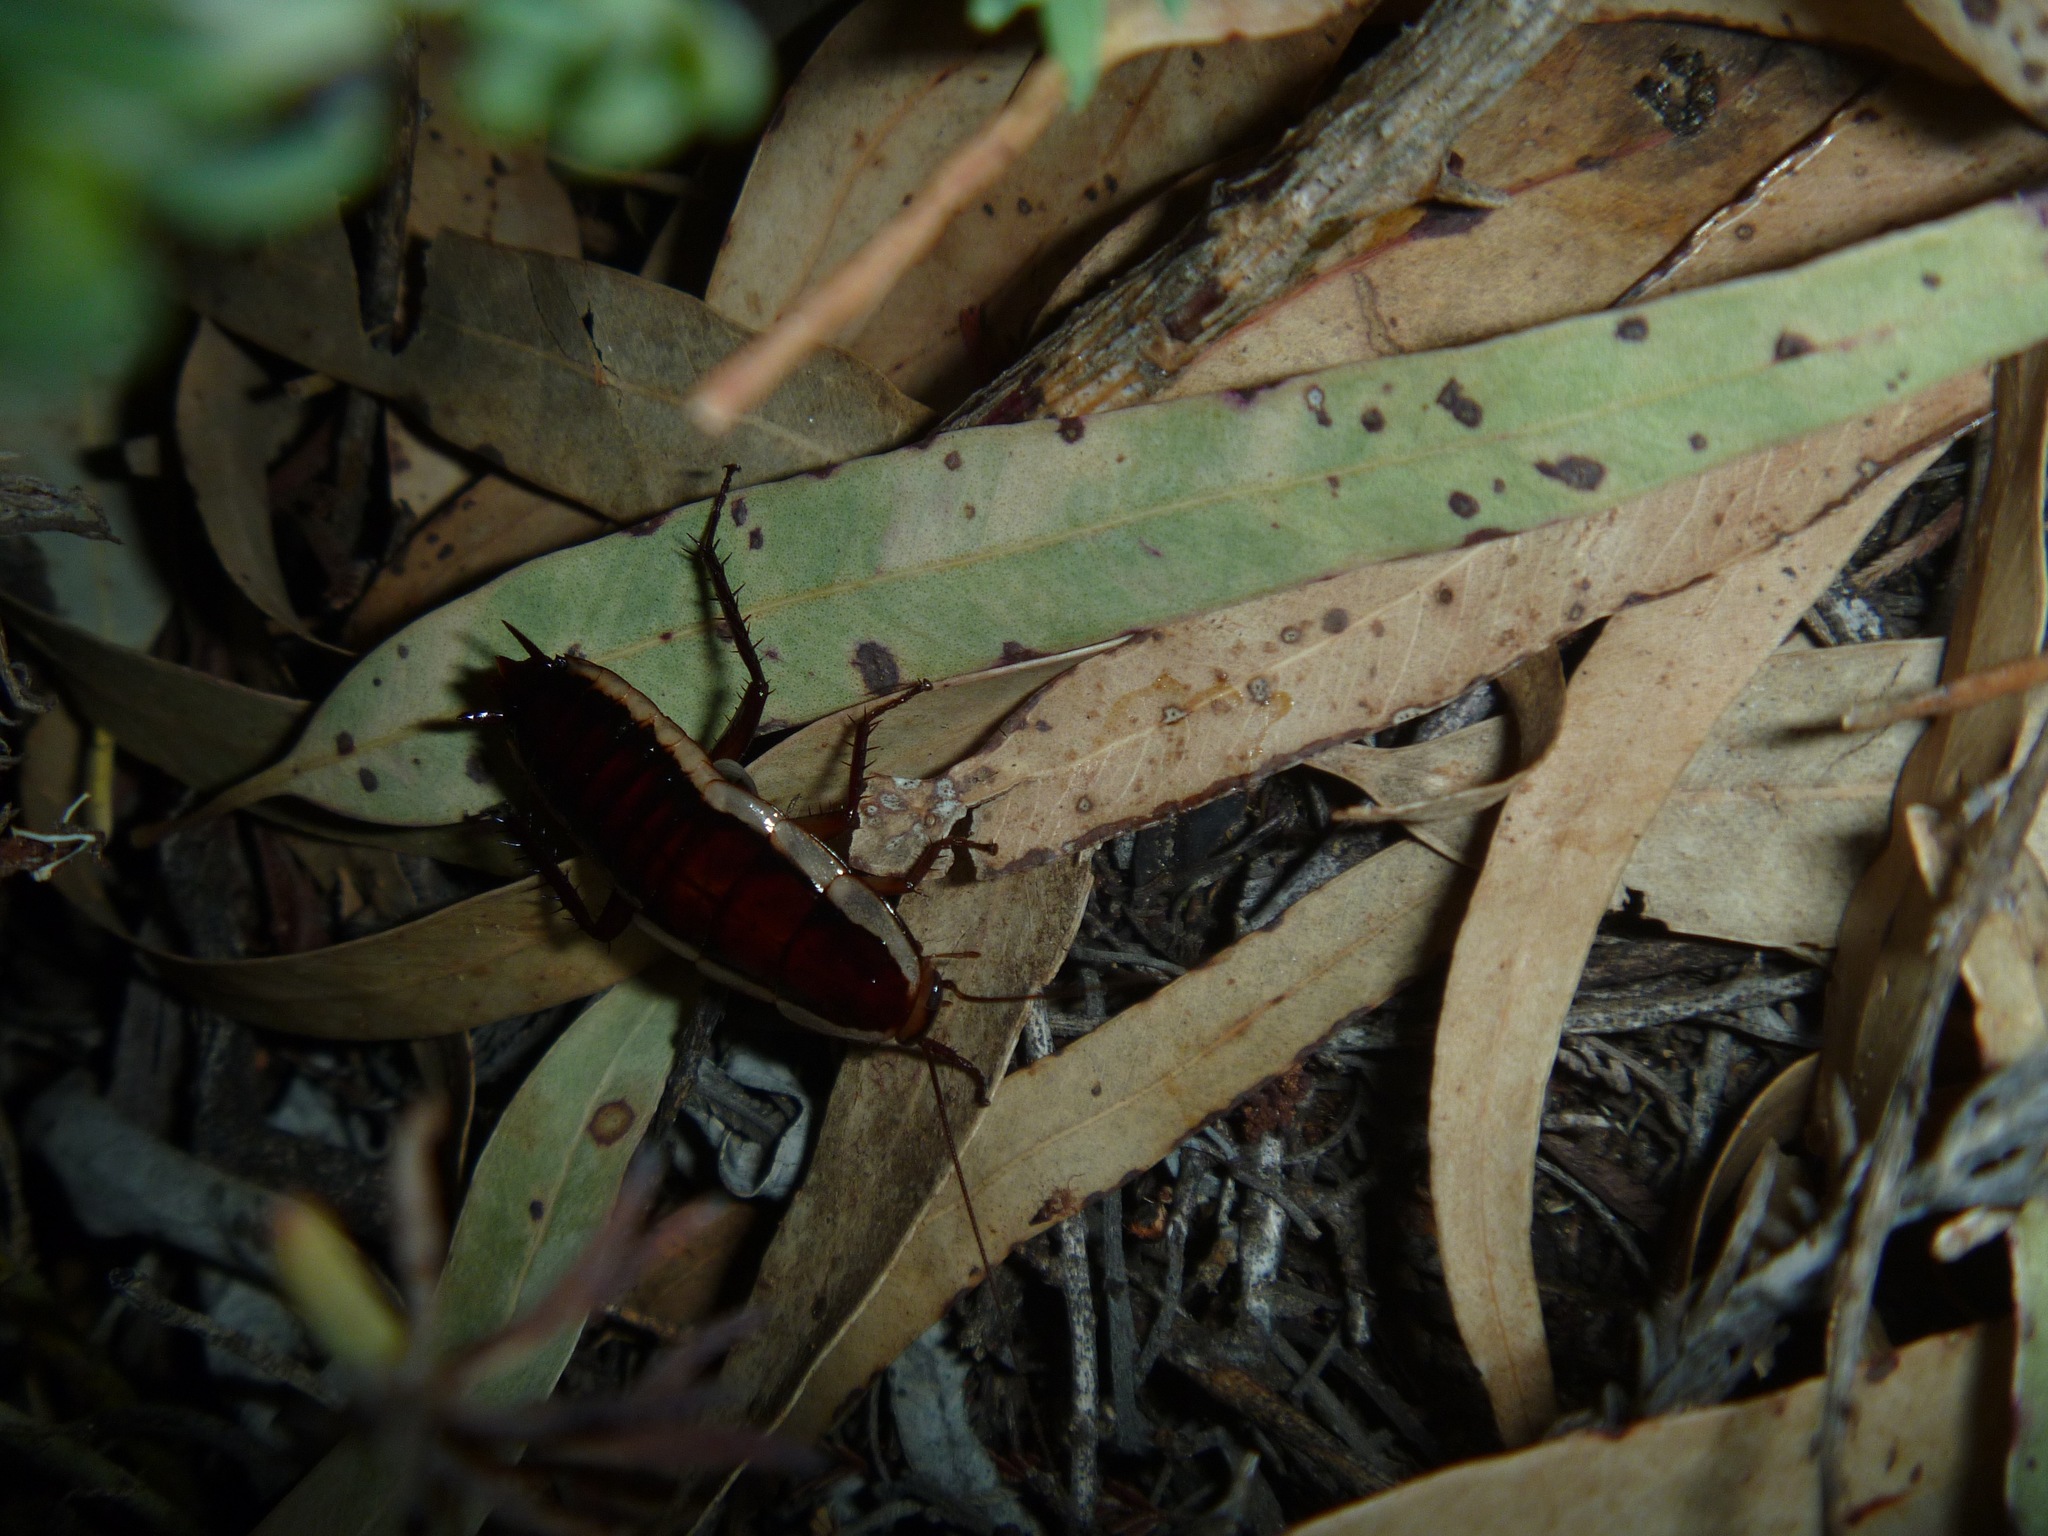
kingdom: Animalia
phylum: Arthropoda
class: Insecta
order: Blattodea
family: Blattidae
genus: Drymaplaneta
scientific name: Drymaplaneta heydeniana
